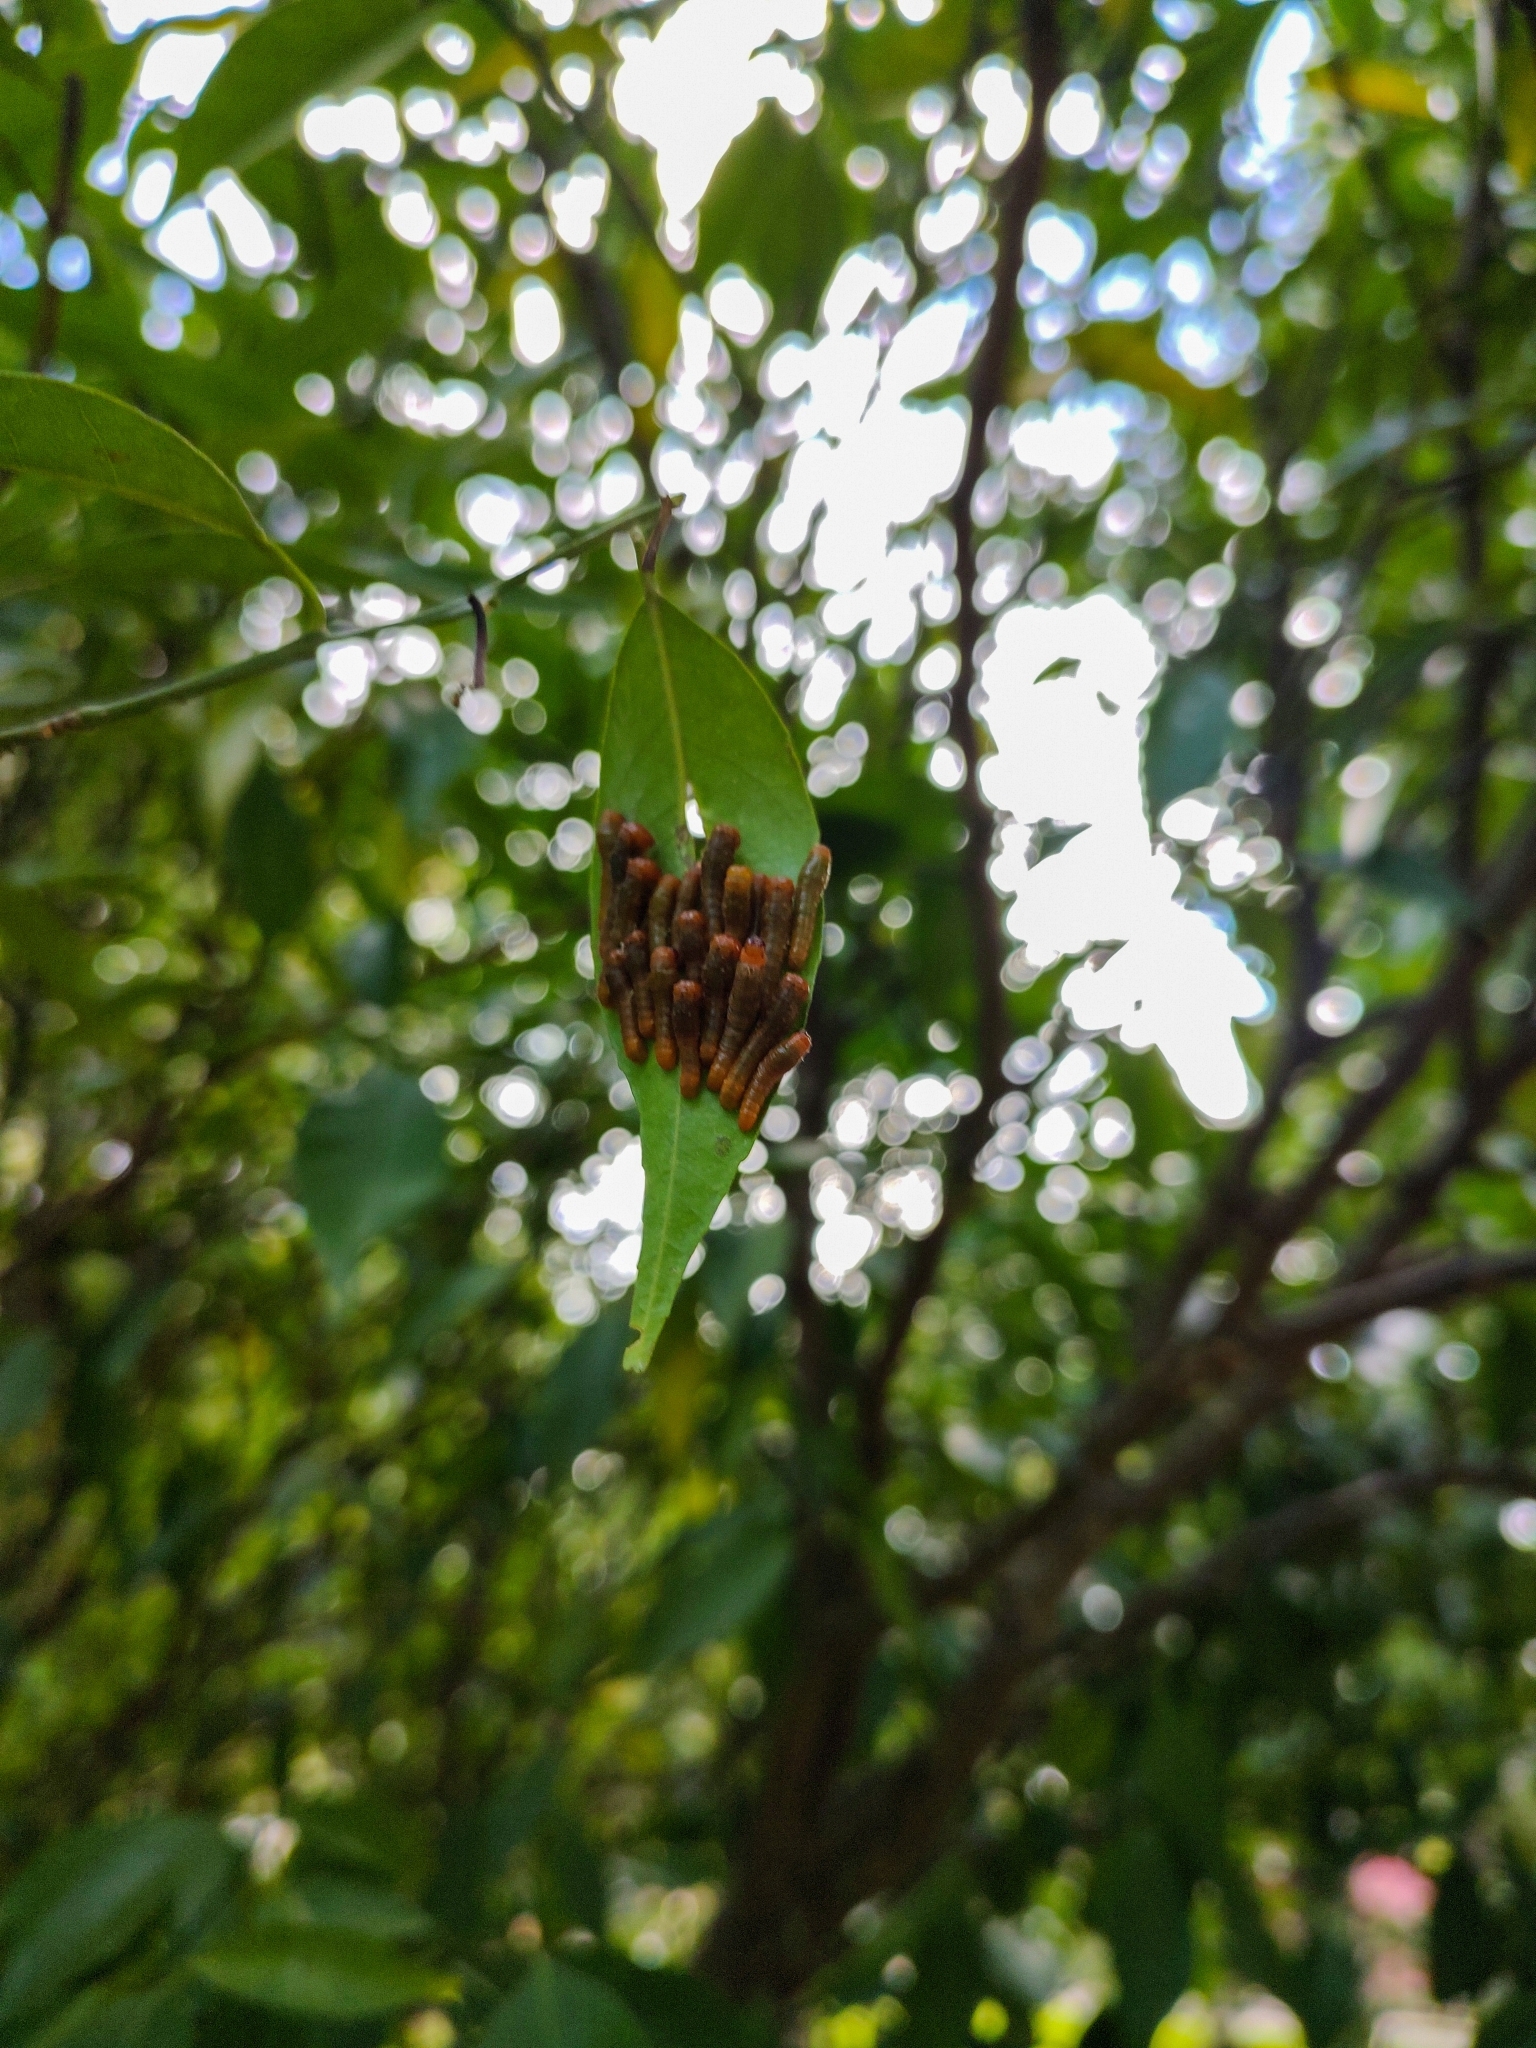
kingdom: Animalia
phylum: Arthropoda
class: Insecta
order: Lepidoptera
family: Papilionidae
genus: Papilio
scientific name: Papilio anchisiades
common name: Idaes swallowtail
